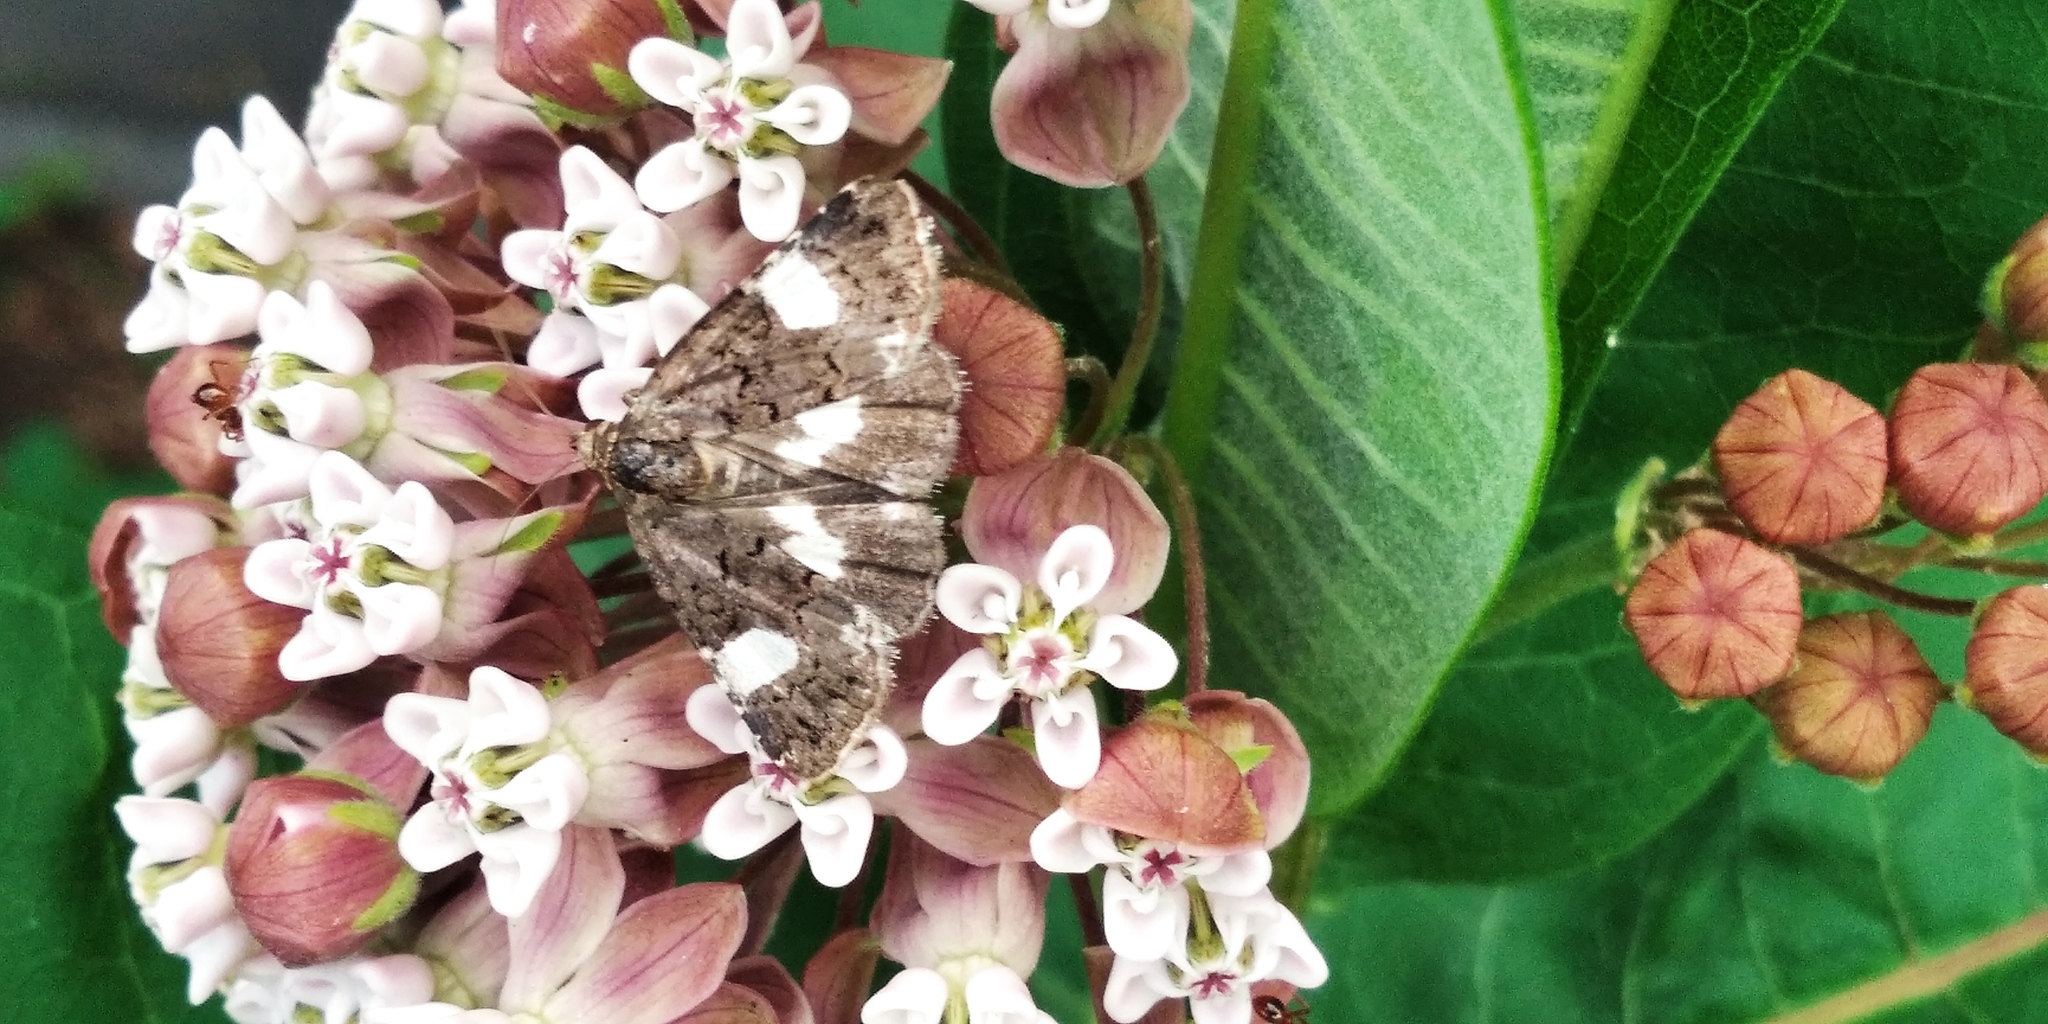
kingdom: Animalia
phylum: Arthropoda
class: Insecta
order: Lepidoptera
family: Erebidae
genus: Tyta
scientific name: Tyta luctuosa
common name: Four-spotted
